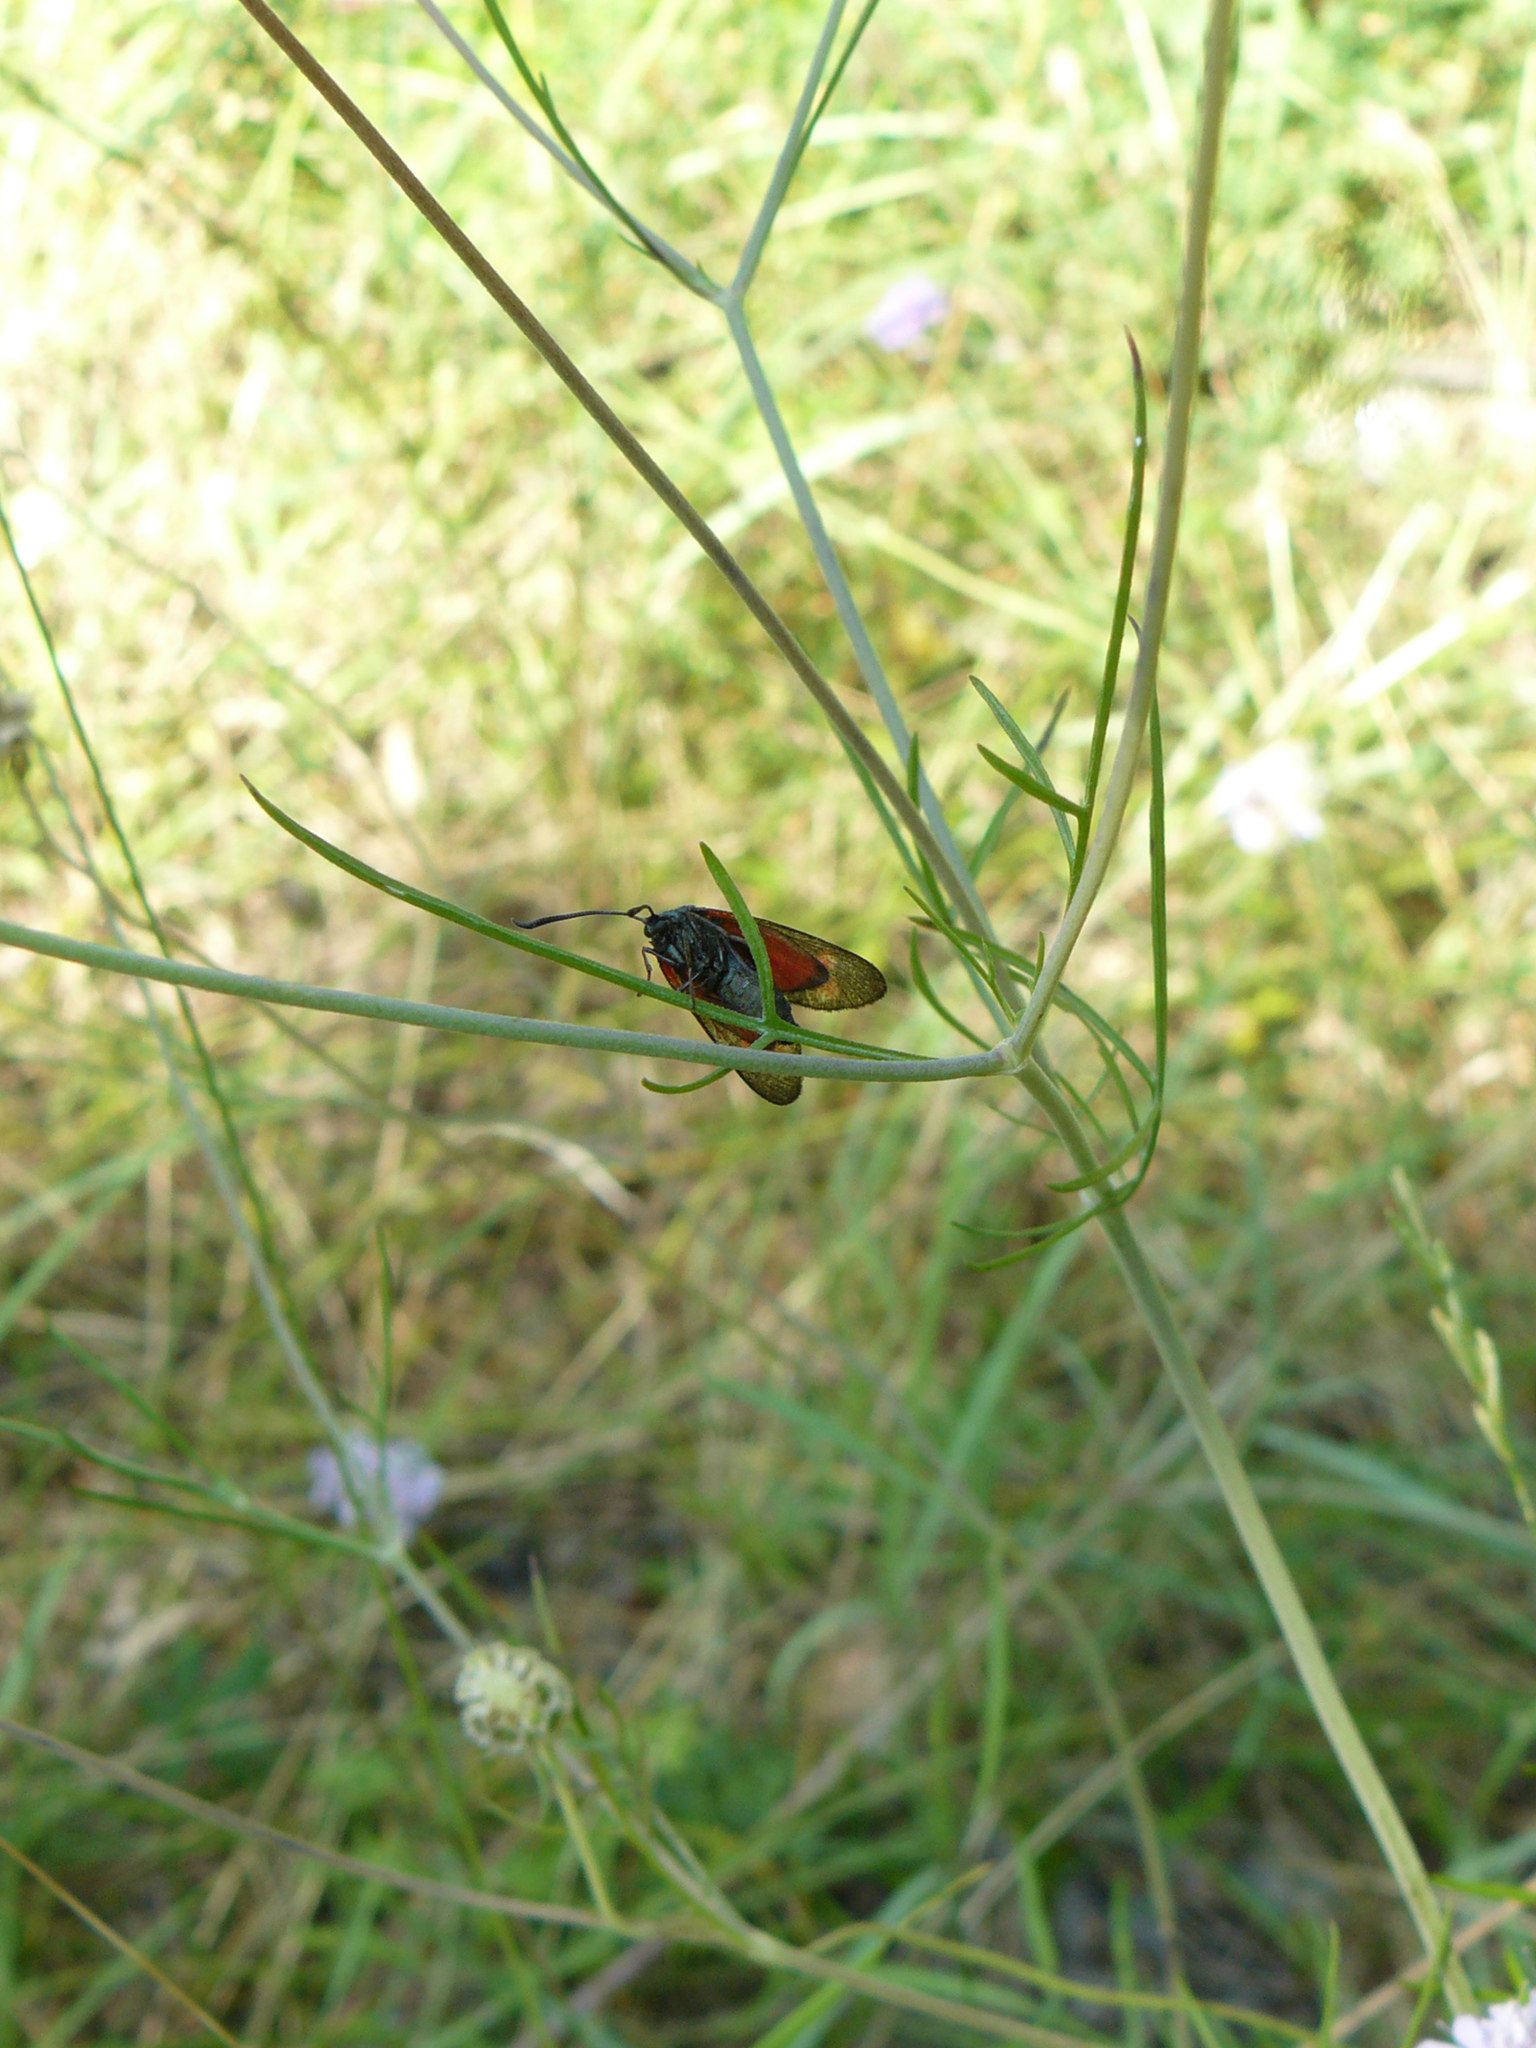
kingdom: Animalia
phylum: Arthropoda
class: Insecta
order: Lepidoptera
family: Zygaenidae
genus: Zygaena
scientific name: Zygaena filipendulae
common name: Six-spot burnet
